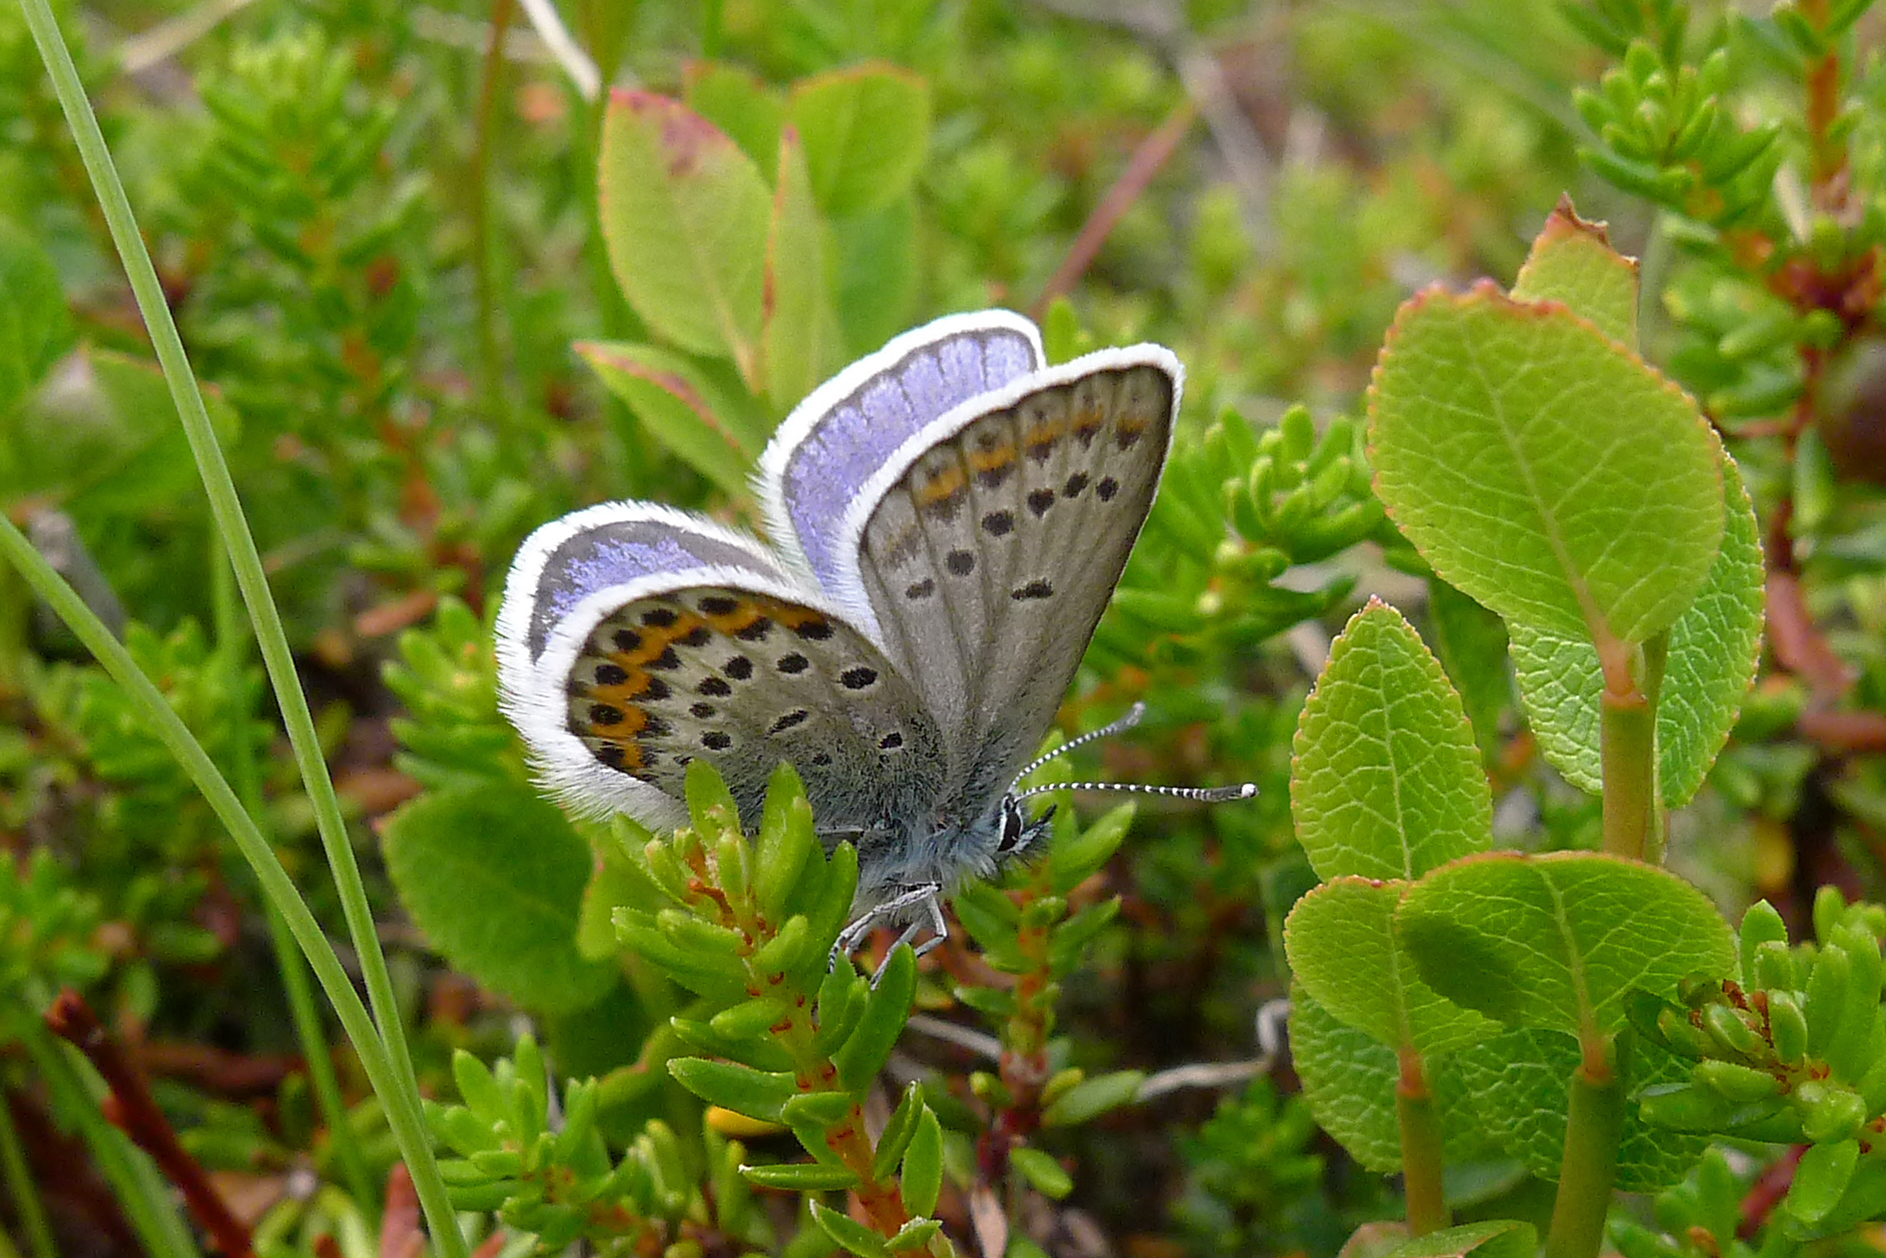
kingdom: Animalia
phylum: Arthropoda
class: Insecta
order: Lepidoptera
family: Lycaenidae
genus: Lycaeides
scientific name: Lycaeides idas
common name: Northern blue
